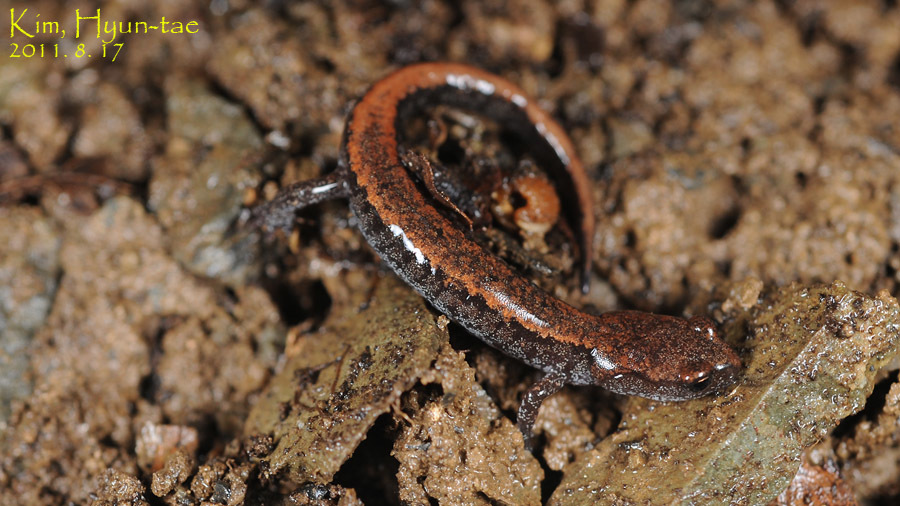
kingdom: Animalia
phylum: Chordata
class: Amphibia
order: Caudata
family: Plethodontidae
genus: Karsenia
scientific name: Karsenia koreana
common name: Korean crevice salamander
